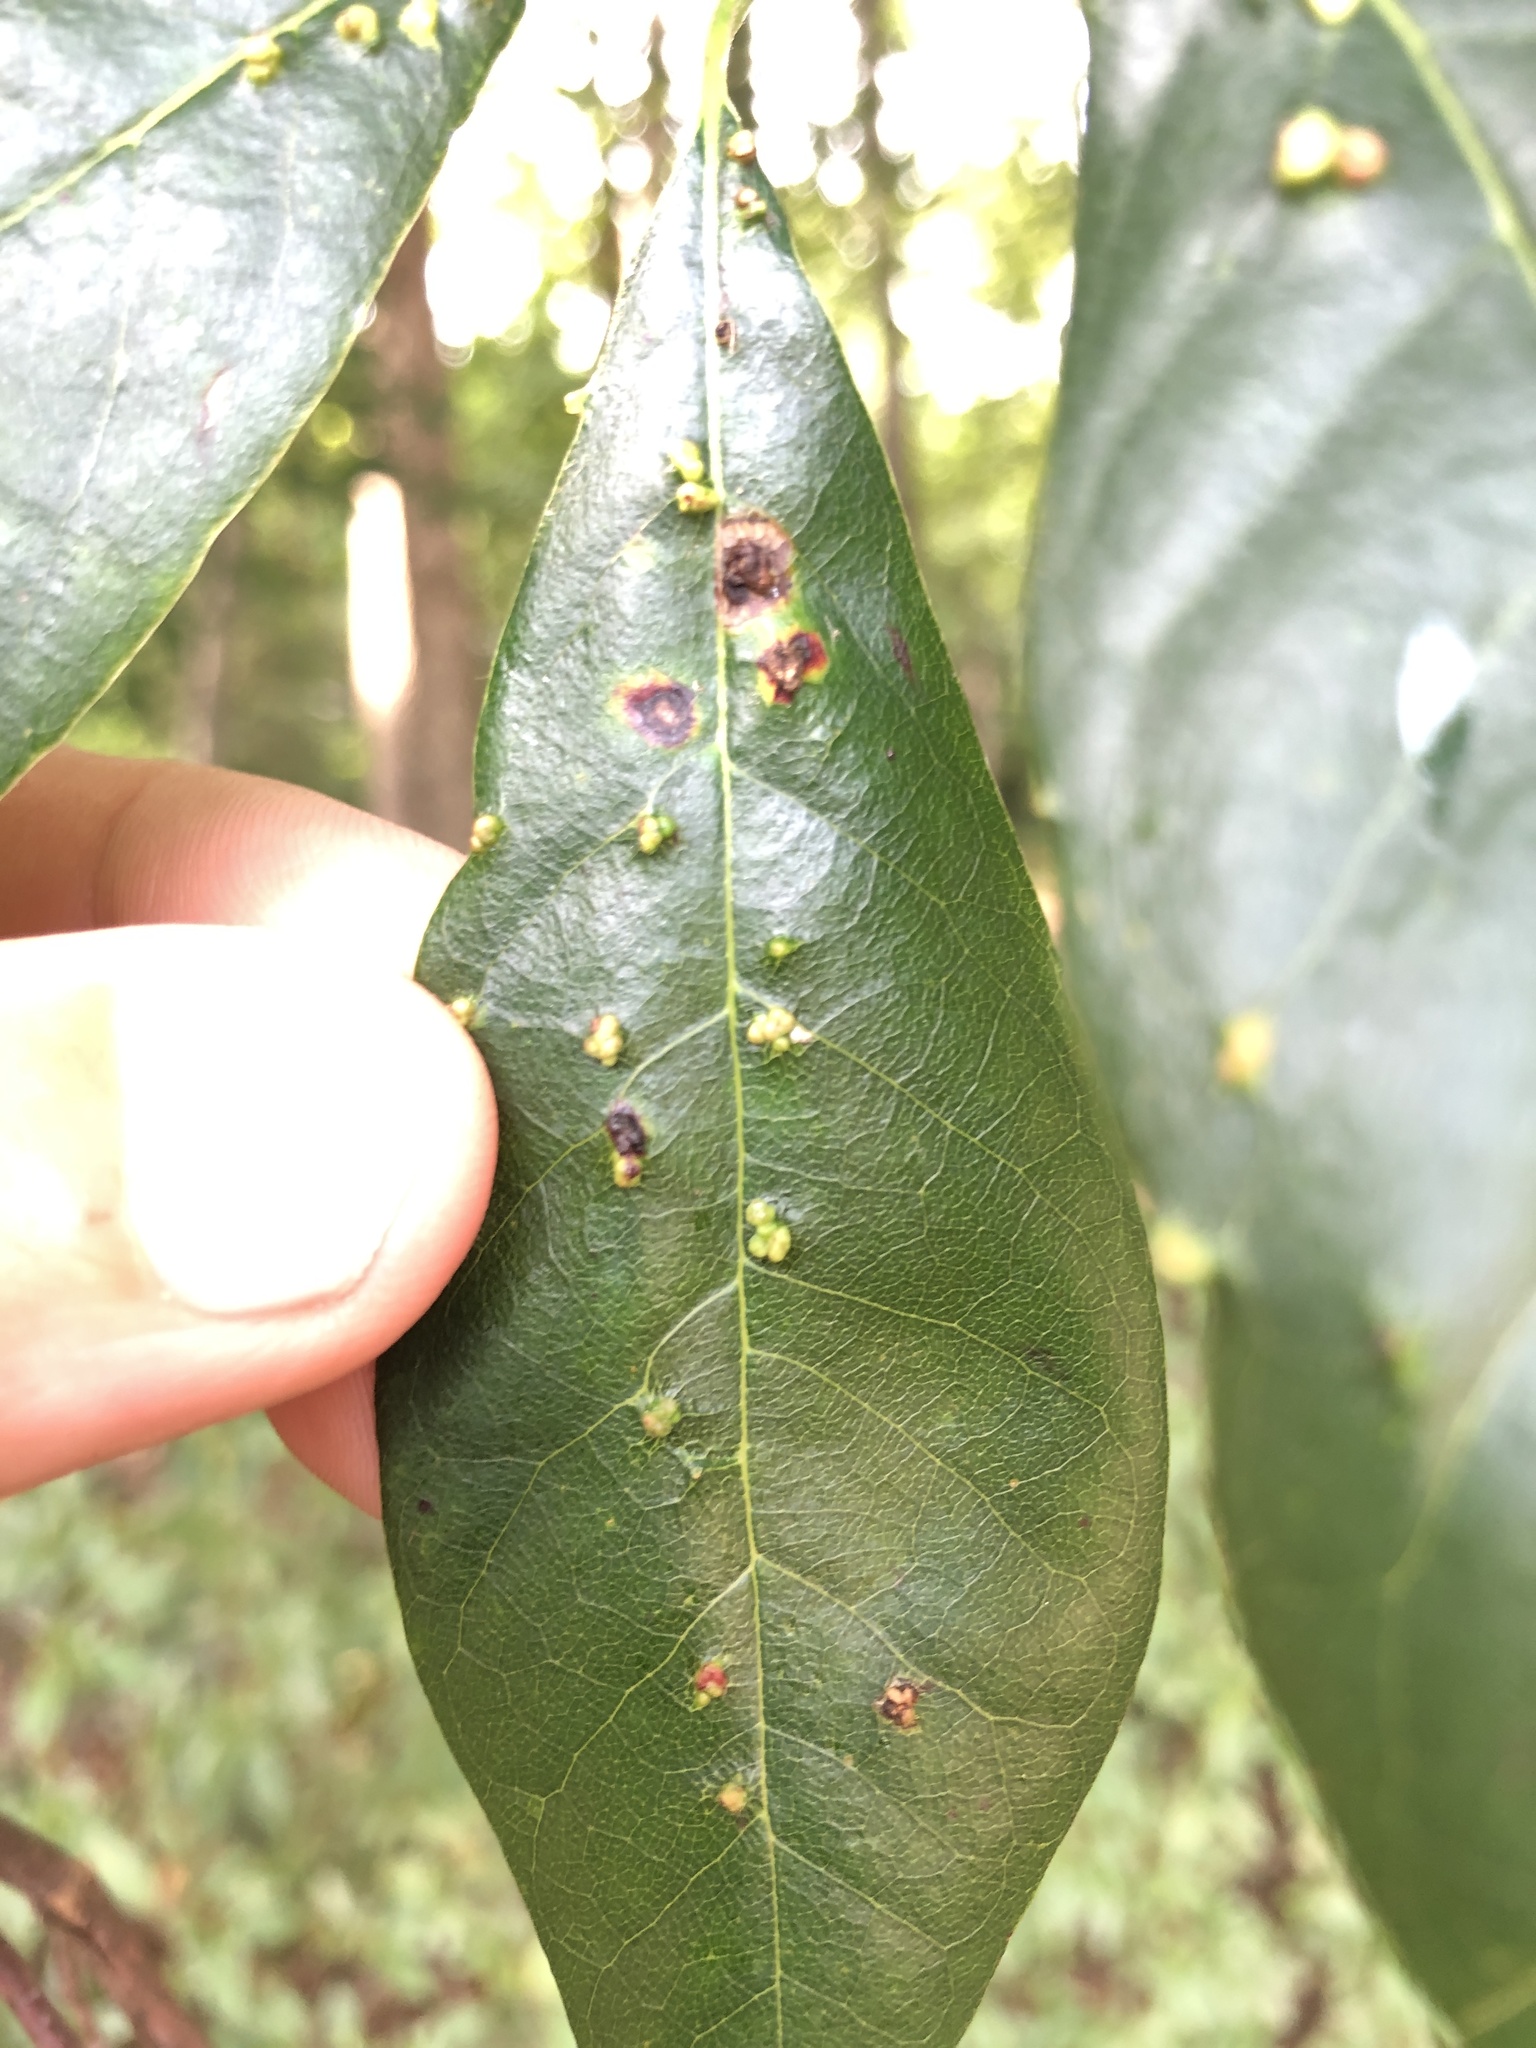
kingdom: Animalia
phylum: Arthropoda
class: Arachnida
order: Trombidiformes
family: Eriophyidae
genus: Aceria
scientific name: Aceria
